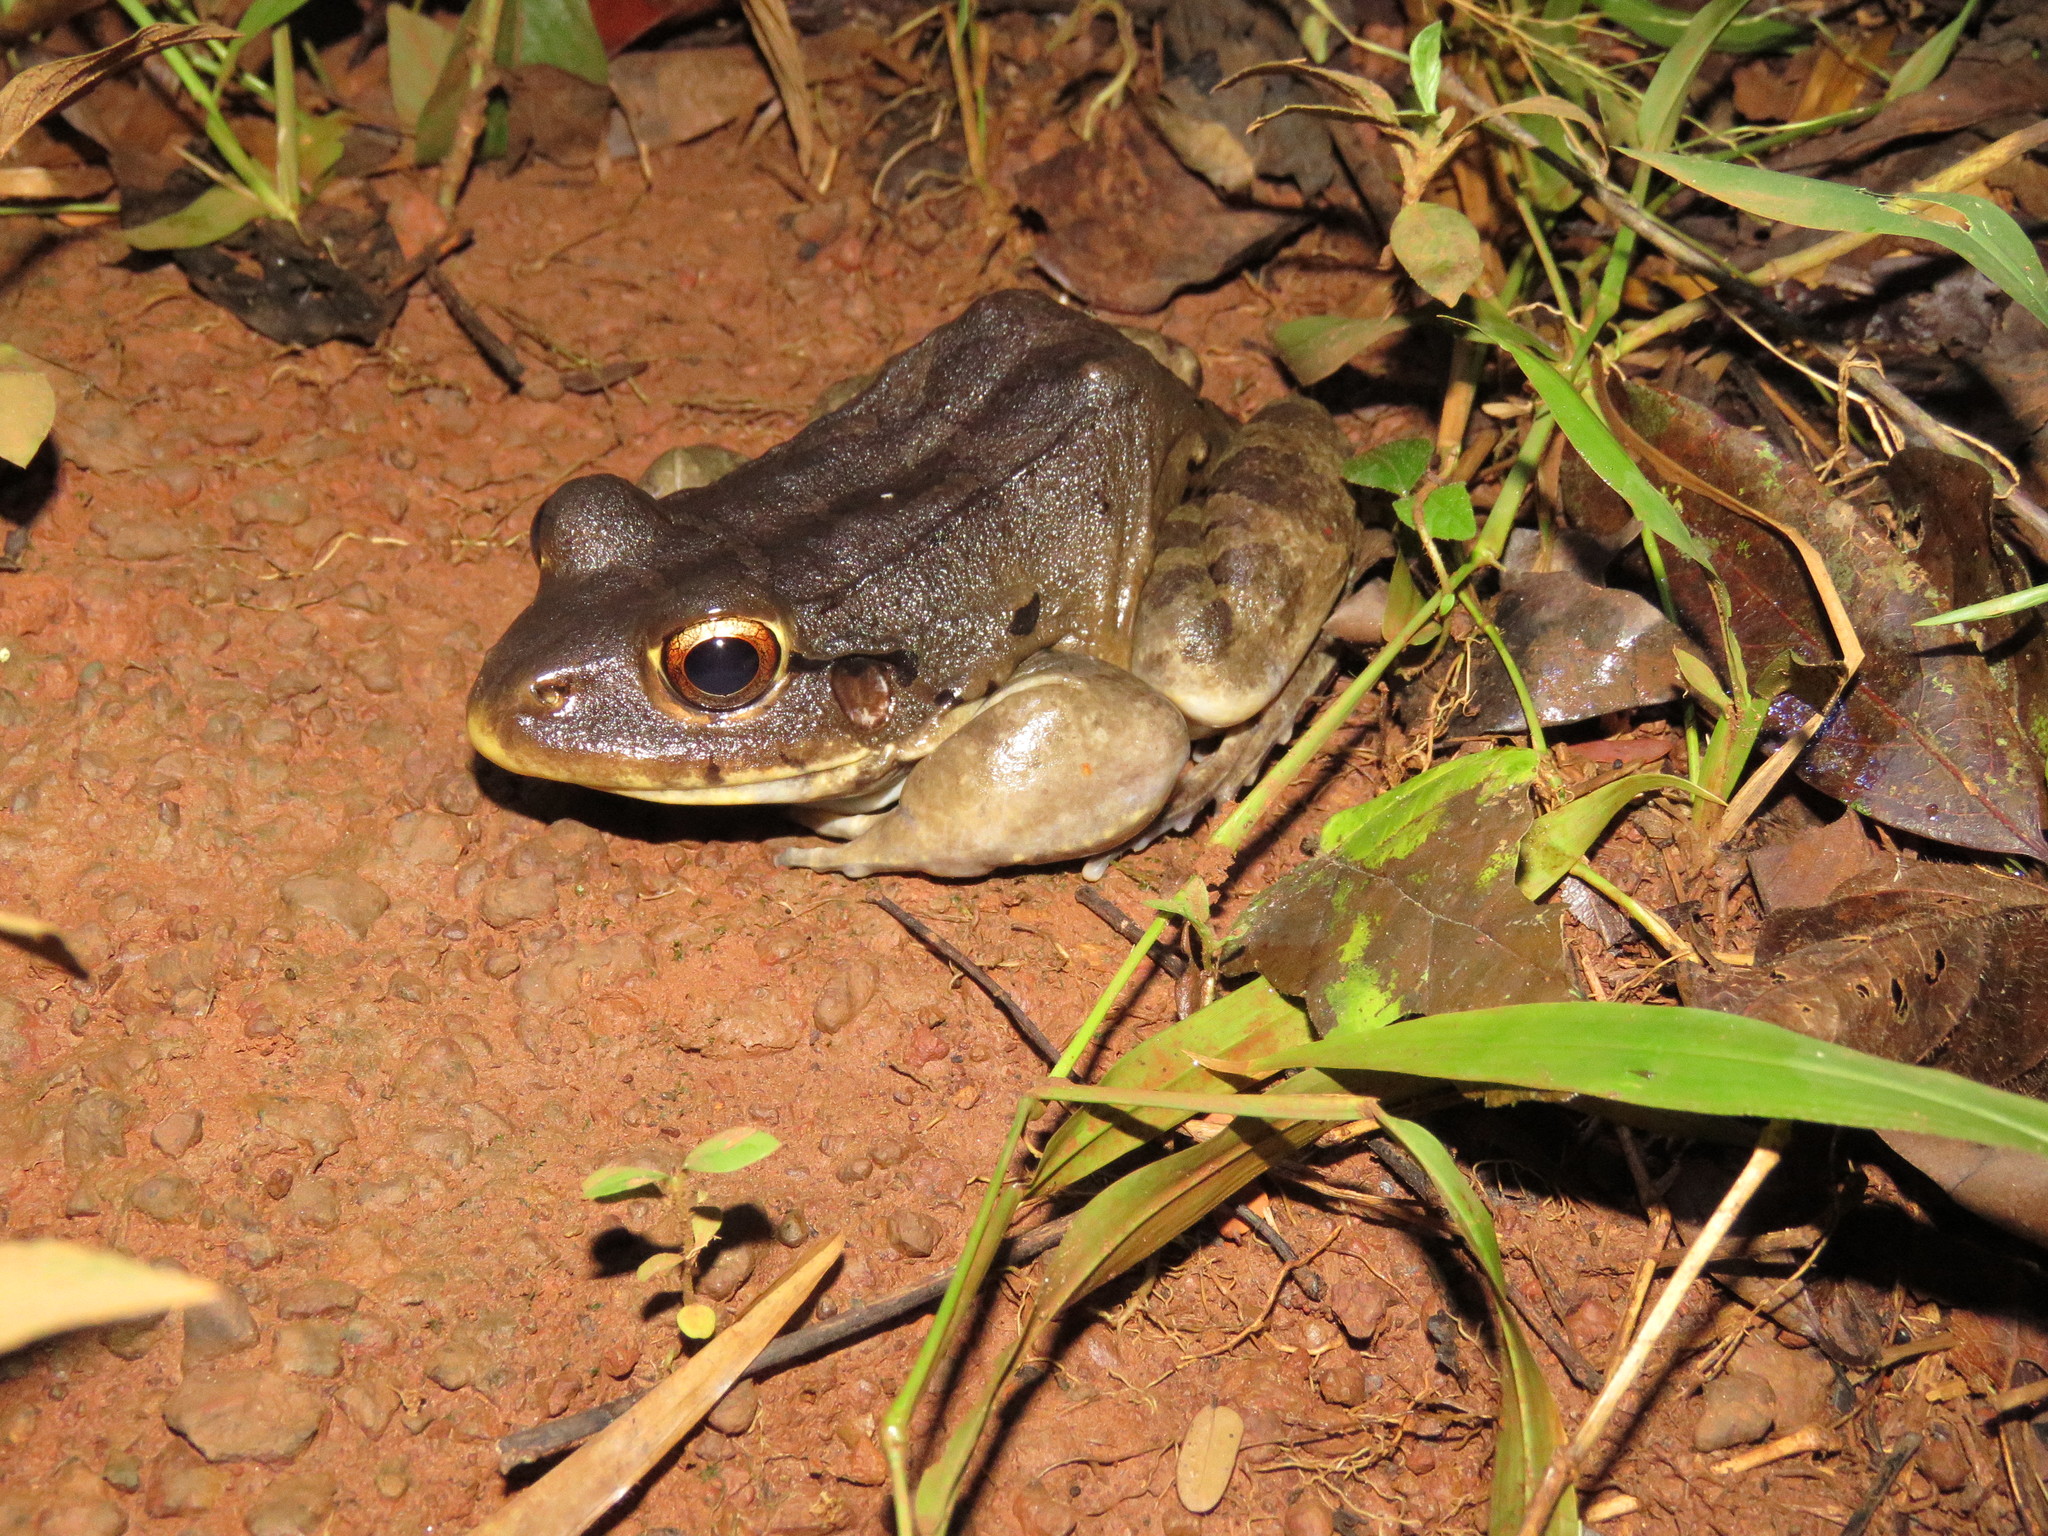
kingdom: Animalia
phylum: Chordata
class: Amphibia
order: Anura
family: Leptodactylidae
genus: Leptodactylus
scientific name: Leptodactylus knudseni
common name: Knudsen's frog
